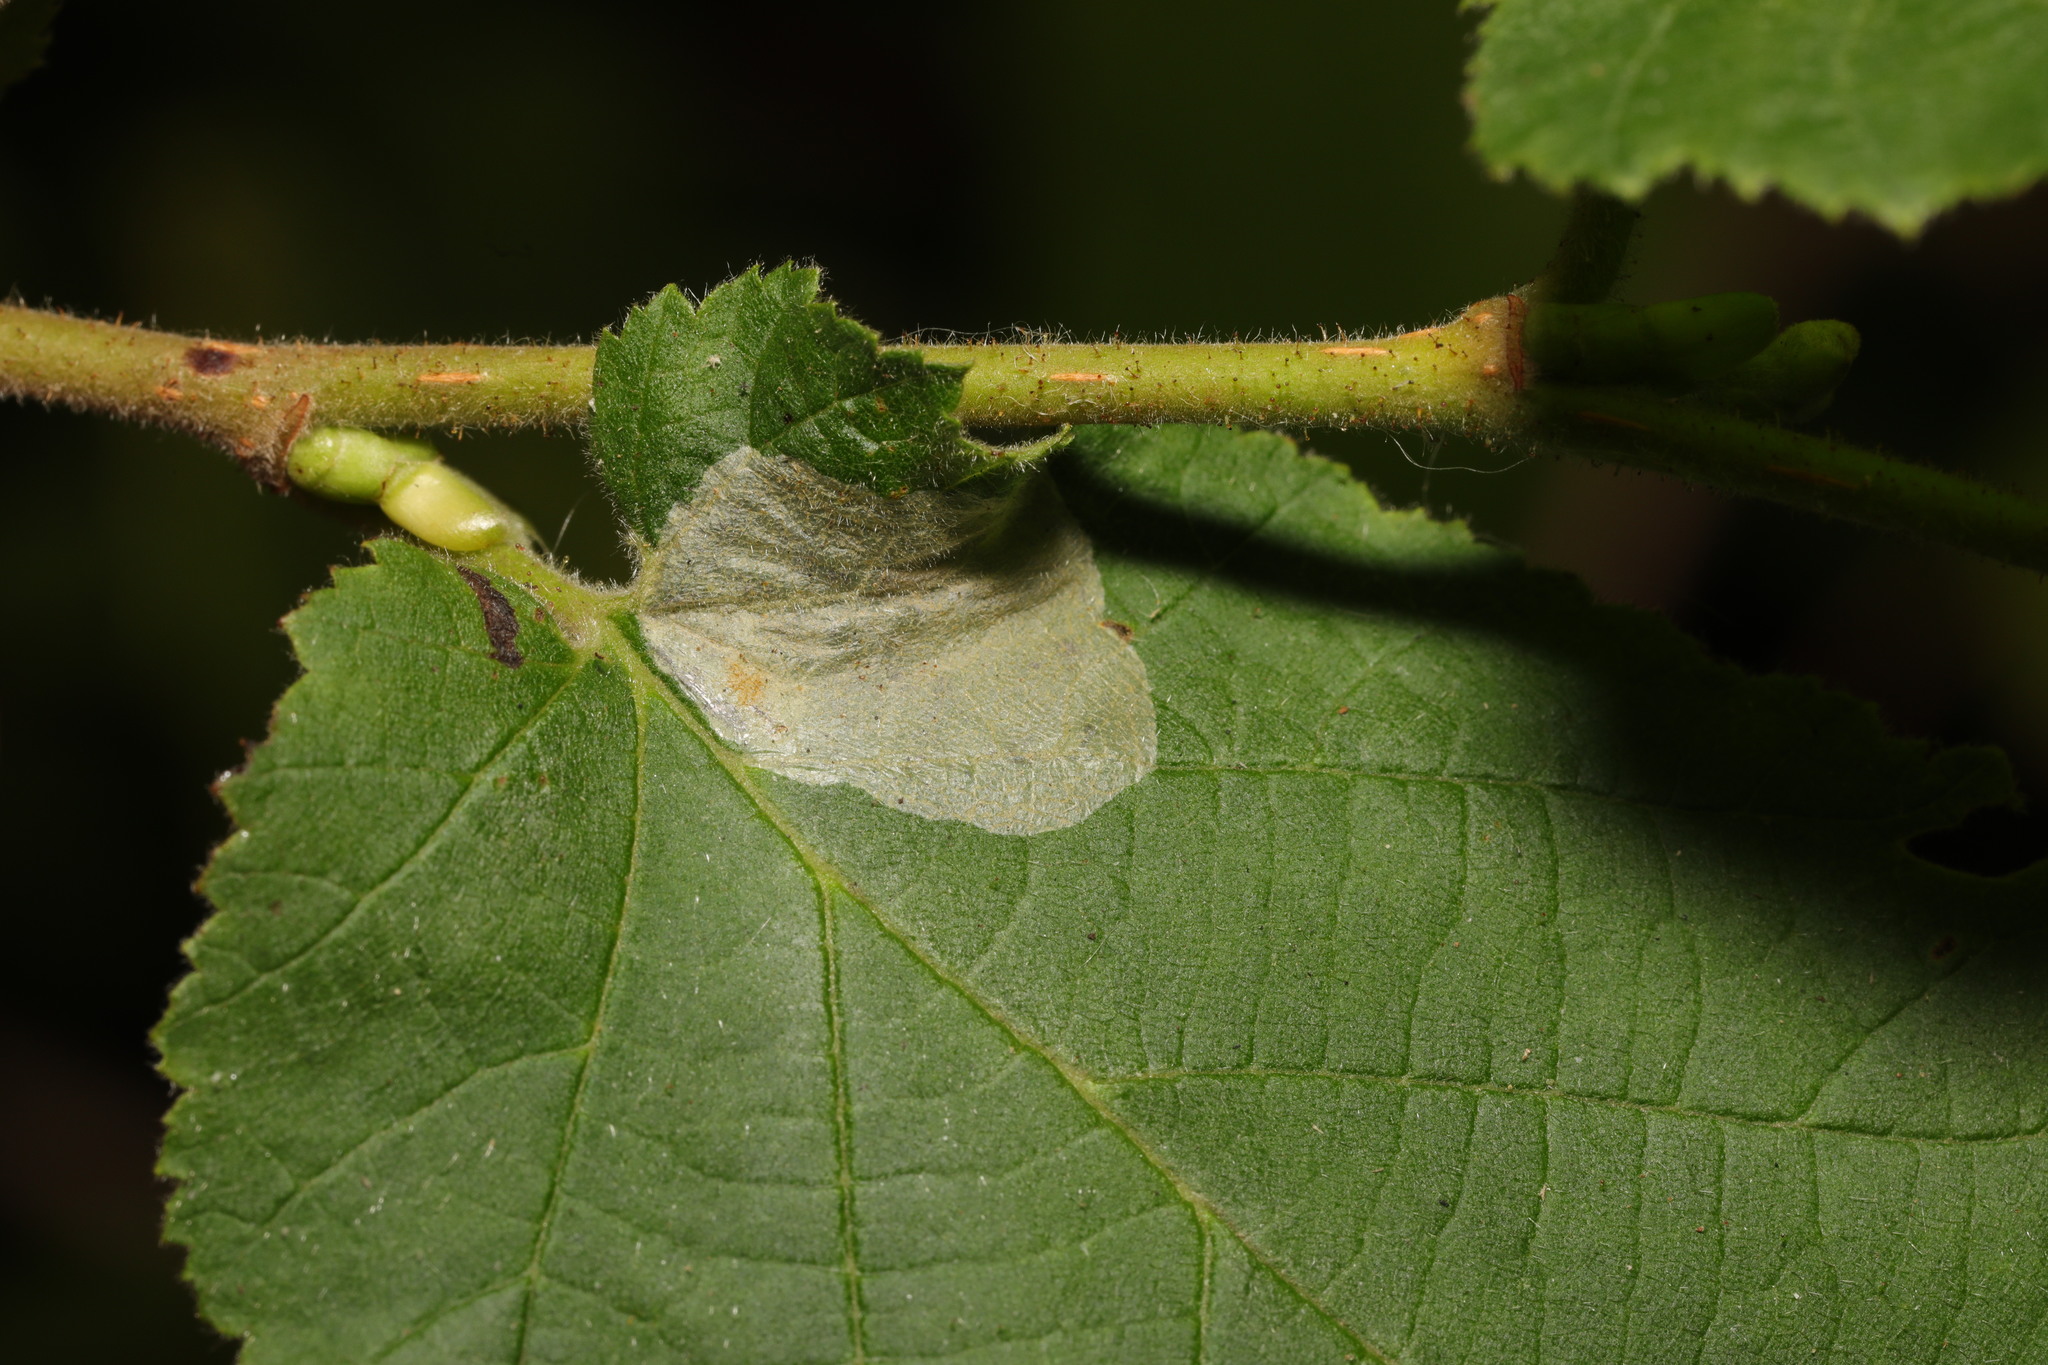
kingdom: Animalia
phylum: Arthropoda
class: Insecta
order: Lepidoptera
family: Gracillariidae
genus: Phyllonorycter
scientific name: Phyllonorycter coryli
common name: Nut-leaf blister moth
